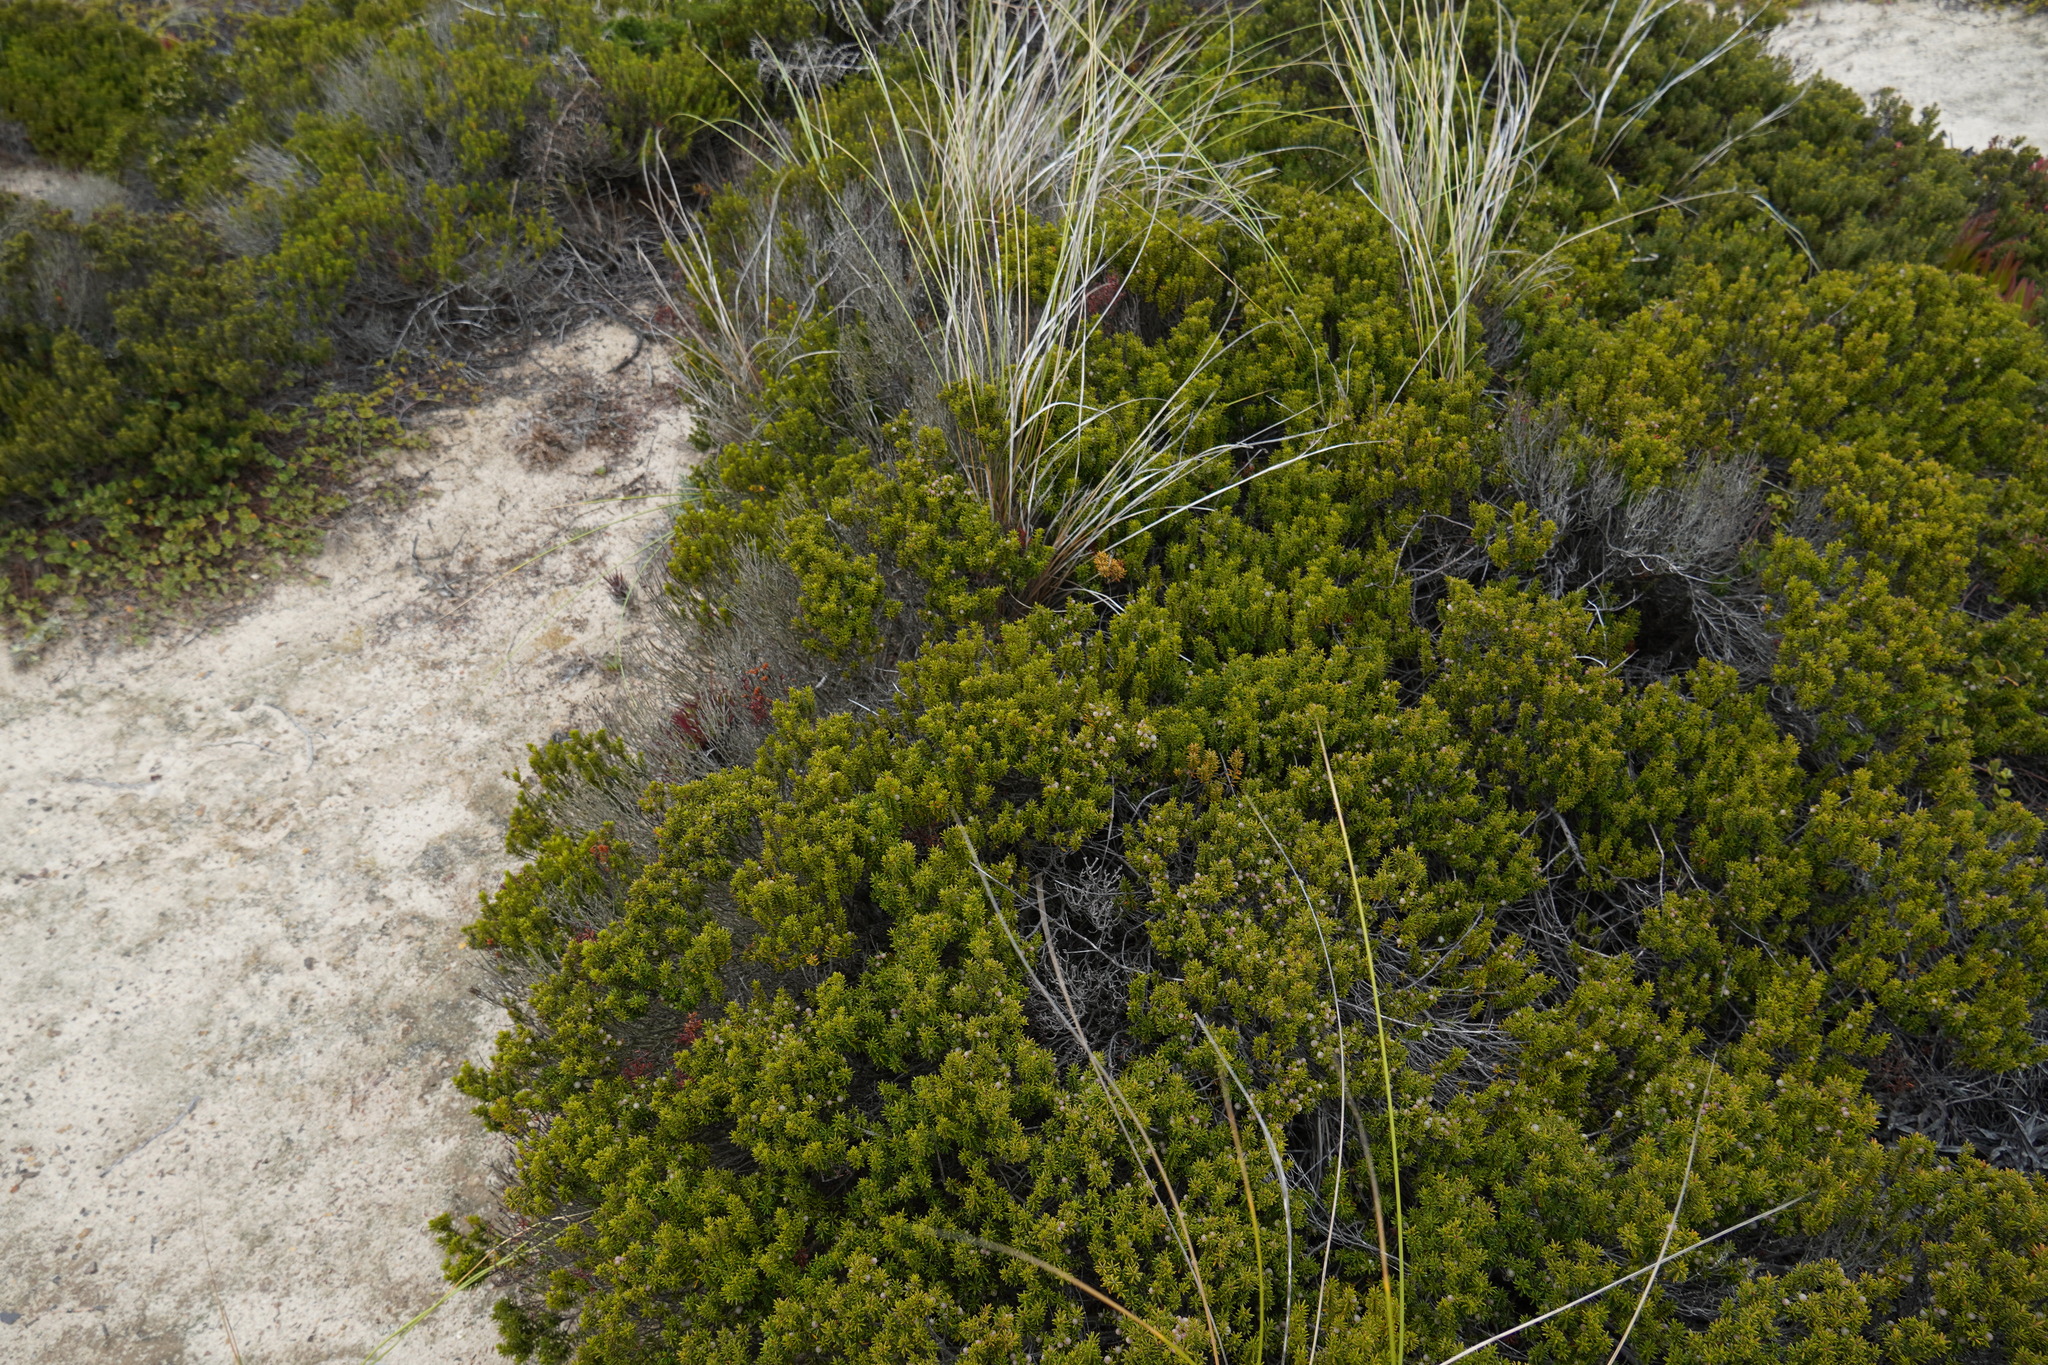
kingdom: Plantae
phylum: Tracheophyta
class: Magnoliopsida
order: Ericales
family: Ericaceae
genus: Corema
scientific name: Corema album
